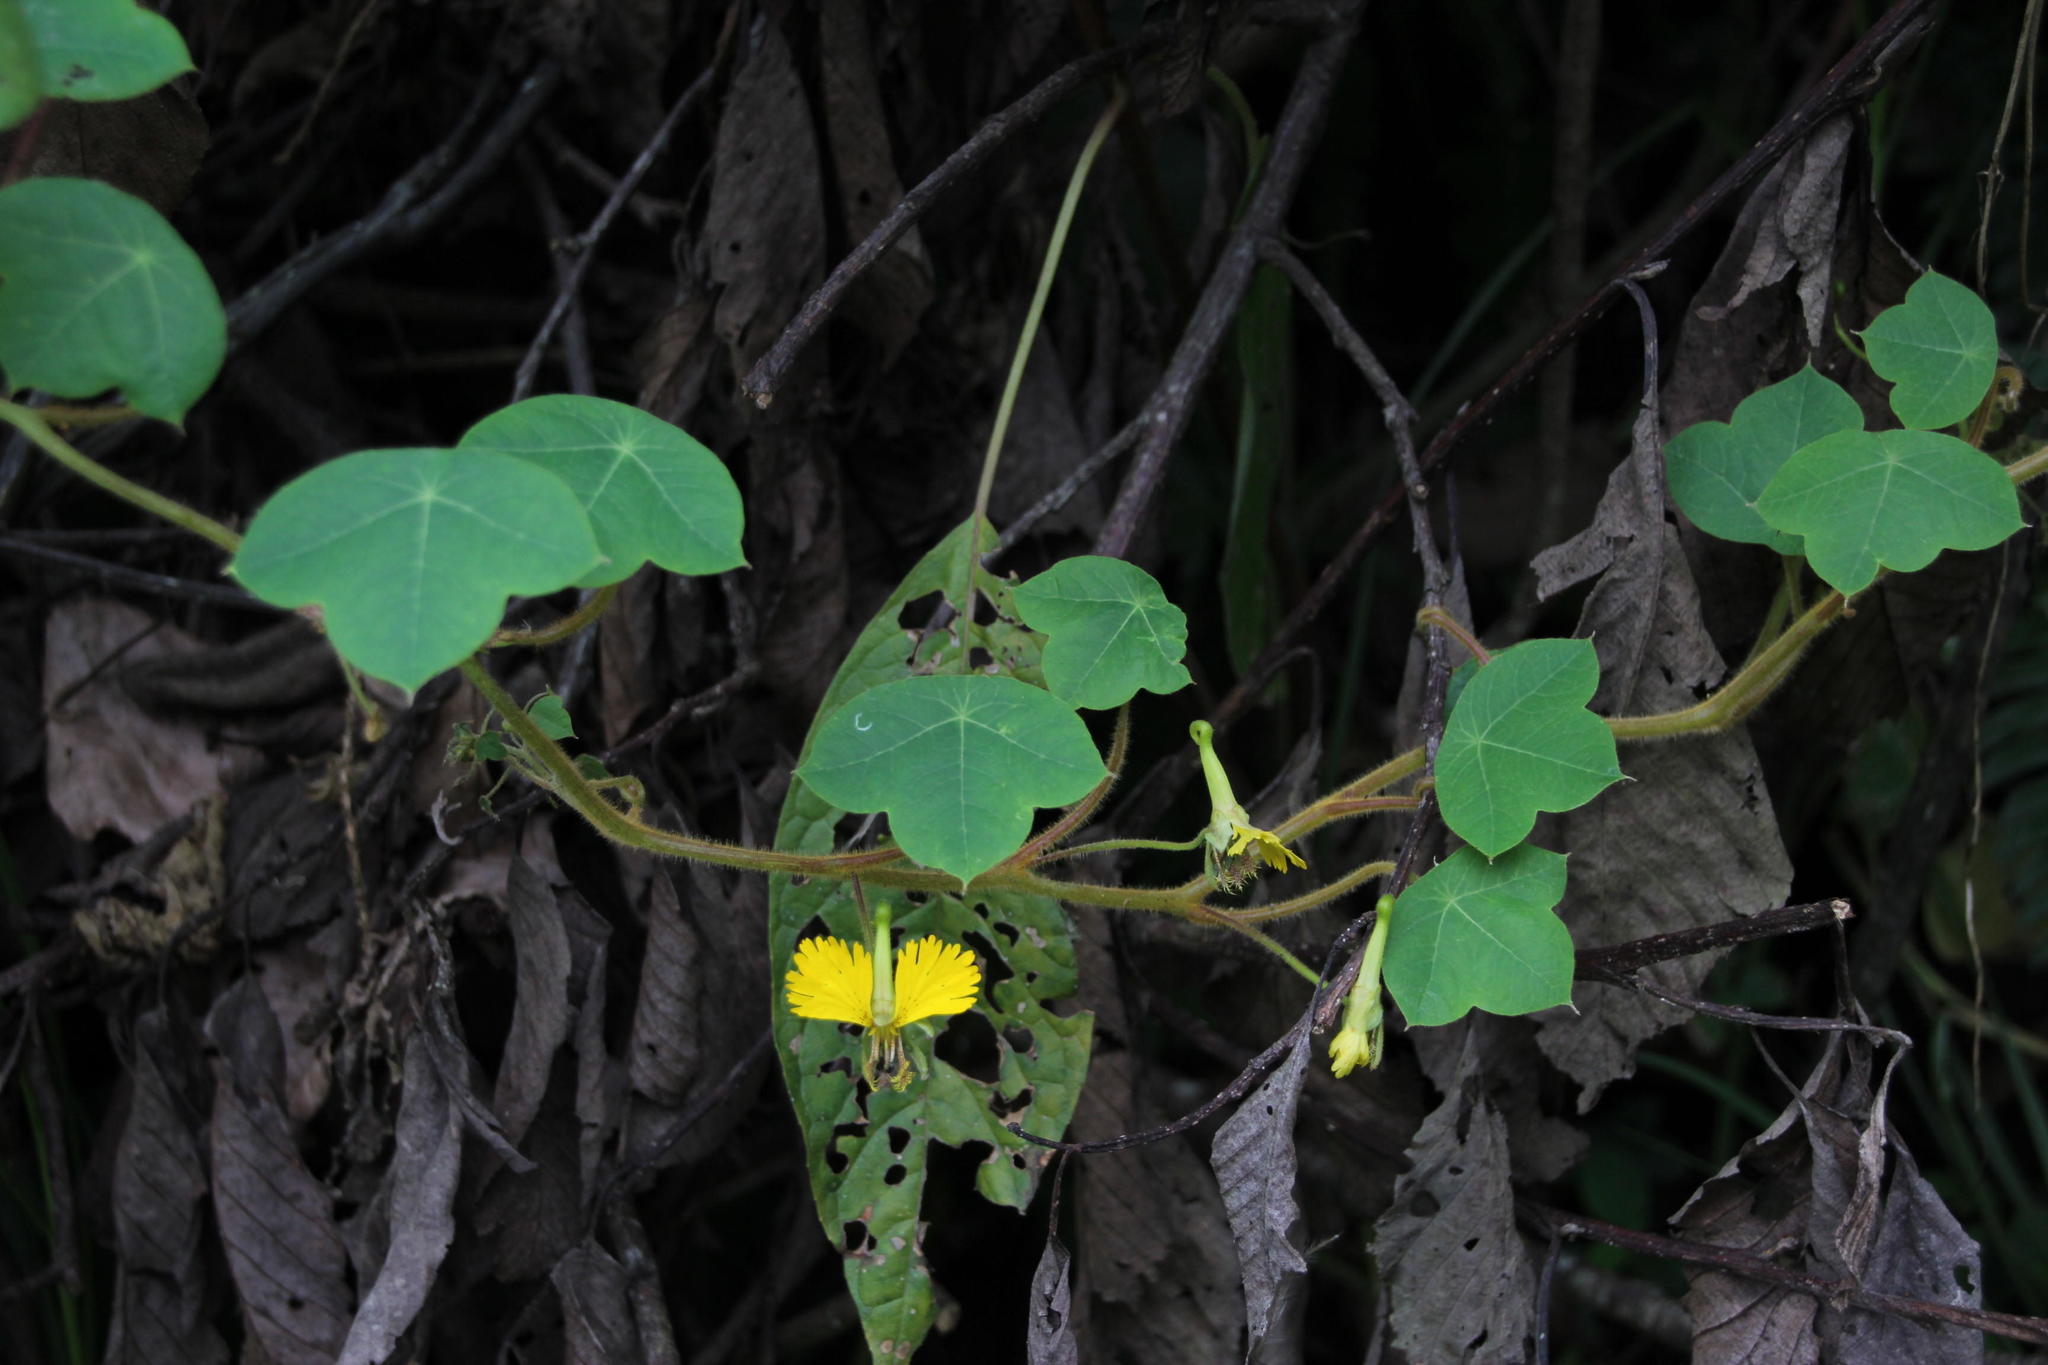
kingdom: Plantae
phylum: Tracheophyta
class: Magnoliopsida
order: Brassicales
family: Tropaeolaceae
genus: Tropaeolum
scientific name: Tropaeolum peregrinum
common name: Canary-creeper
